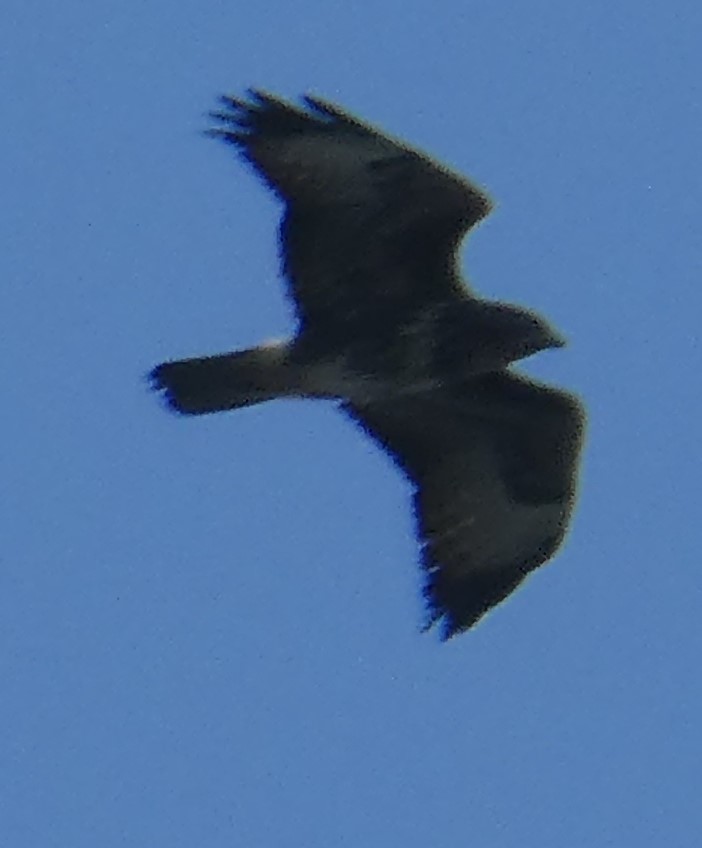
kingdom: Animalia
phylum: Chordata
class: Aves
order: Accipitriformes
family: Accipitridae
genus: Buteo
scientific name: Buteo buteo
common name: Common buzzard
